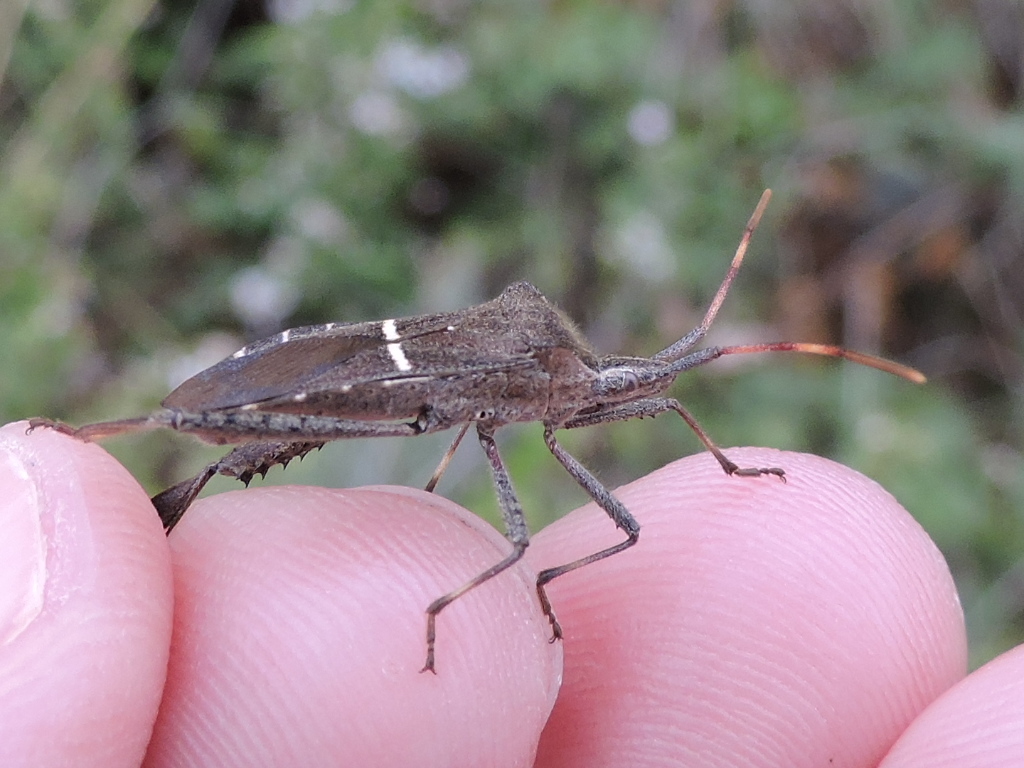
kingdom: Animalia
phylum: Arthropoda
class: Insecta
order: Hemiptera
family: Coreidae
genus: Leptoglossus
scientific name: Leptoglossus phyllopus
